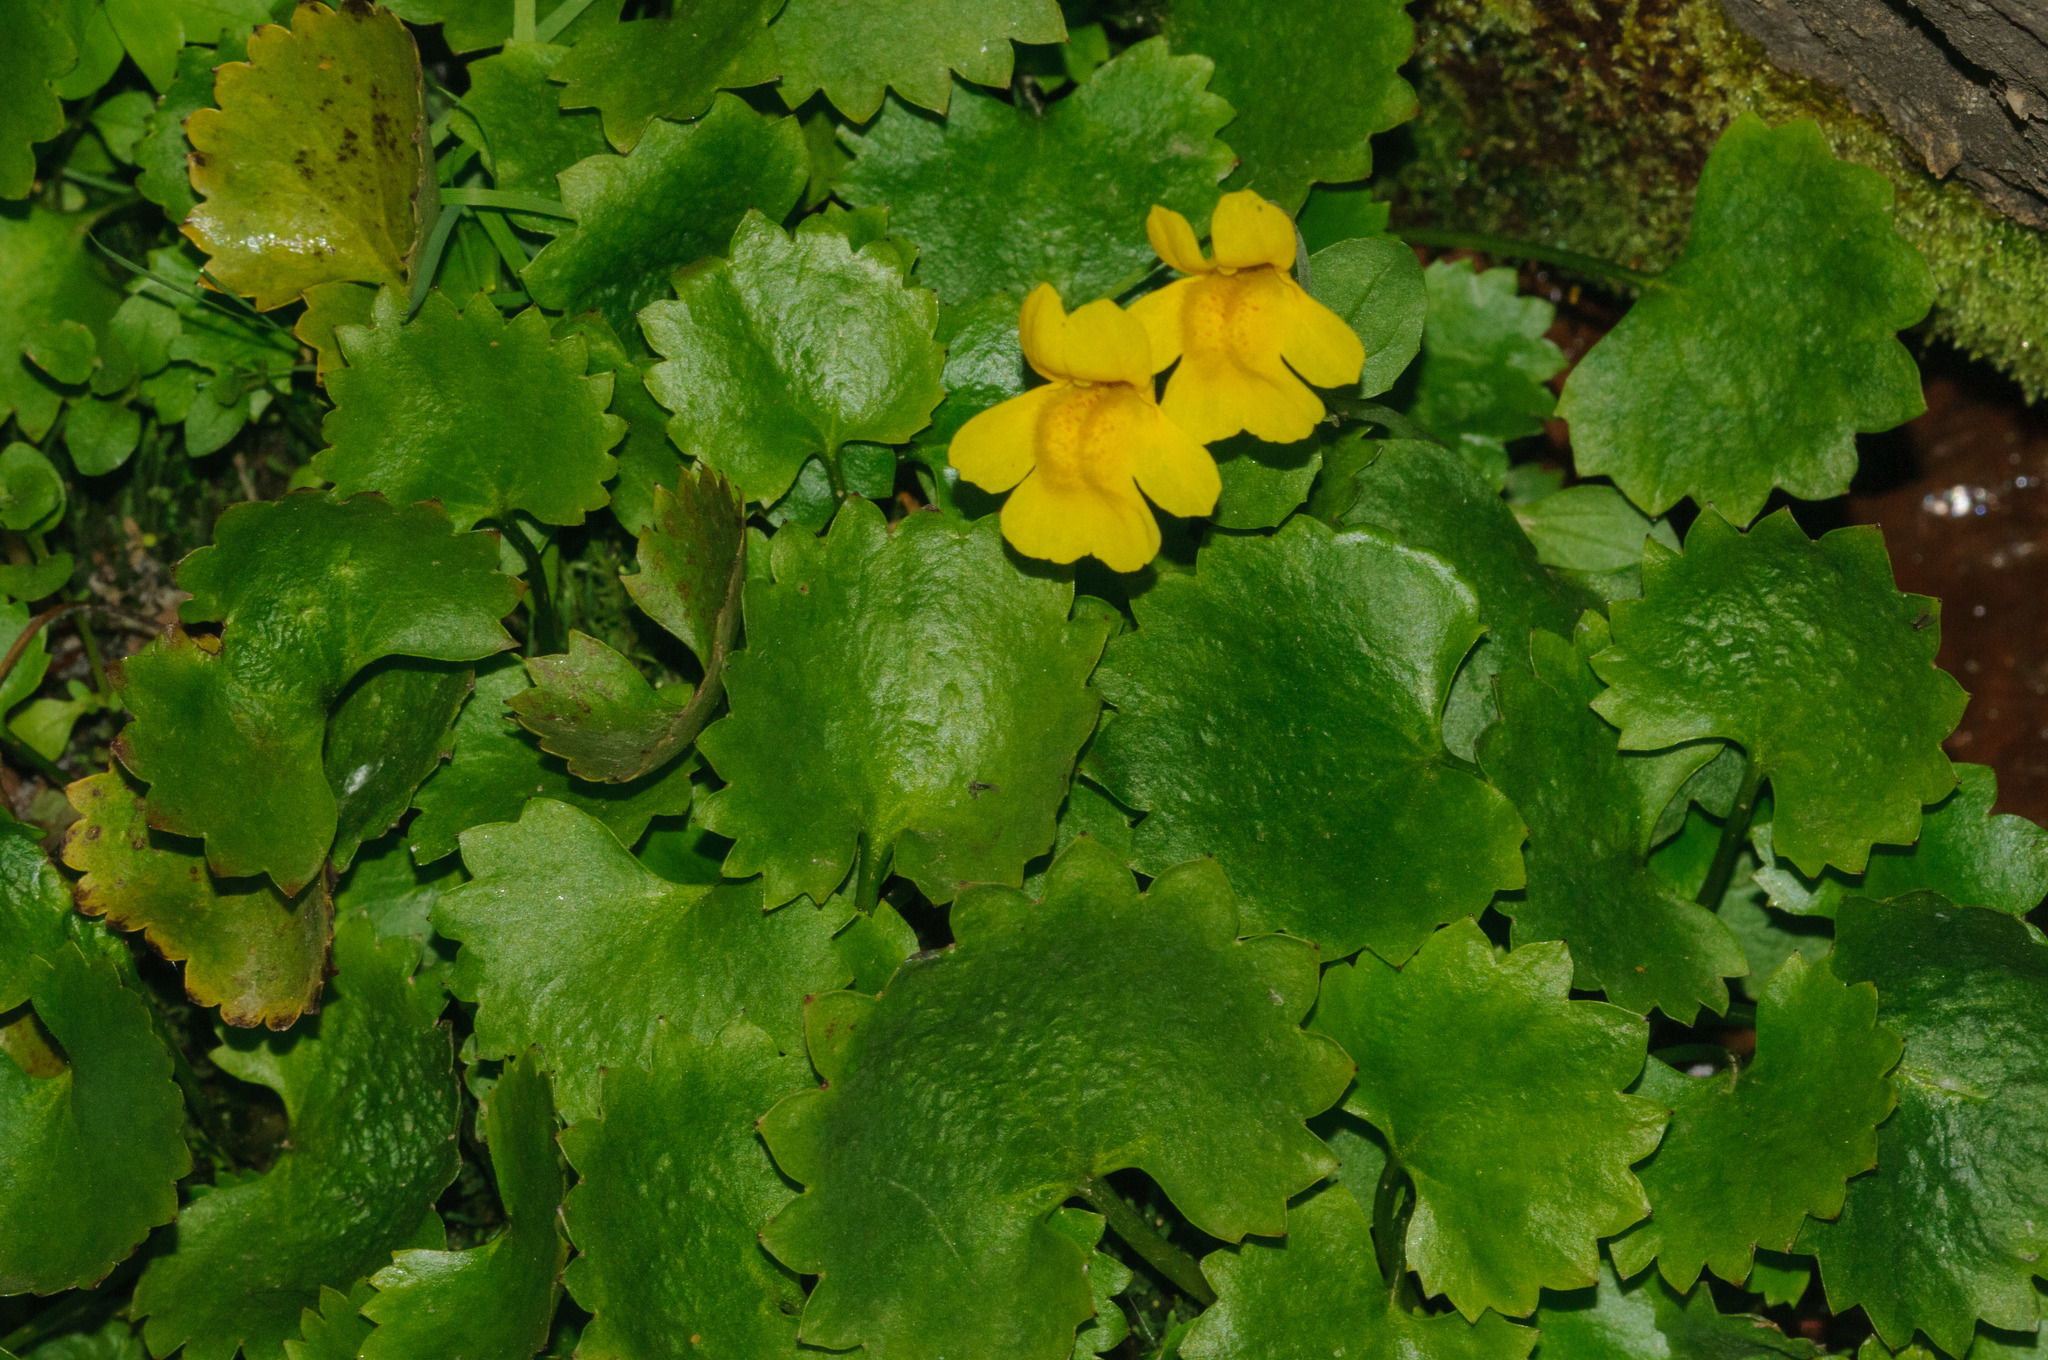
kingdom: Plantae
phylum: Tracheophyta
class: Magnoliopsida
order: Lamiales
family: Phrymaceae
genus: Erythranthe
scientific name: Erythranthe tilingii
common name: Subalpine monkey-flower
